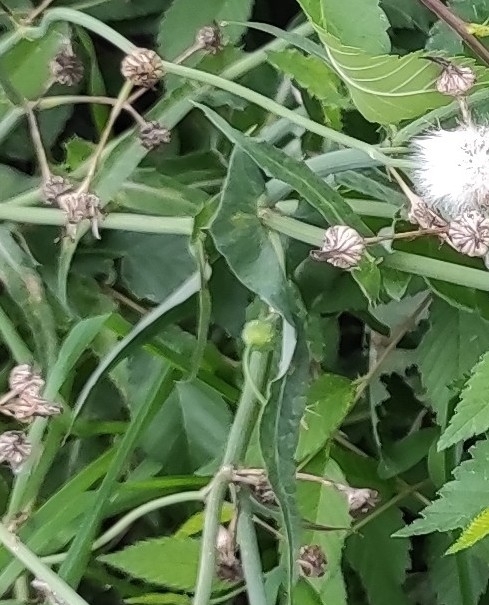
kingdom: Plantae
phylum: Tracheophyta
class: Magnoliopsida
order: Asterales
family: Asteraceae
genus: Sonchus
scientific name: Sonchus oleraceus
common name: Common sowthistle
